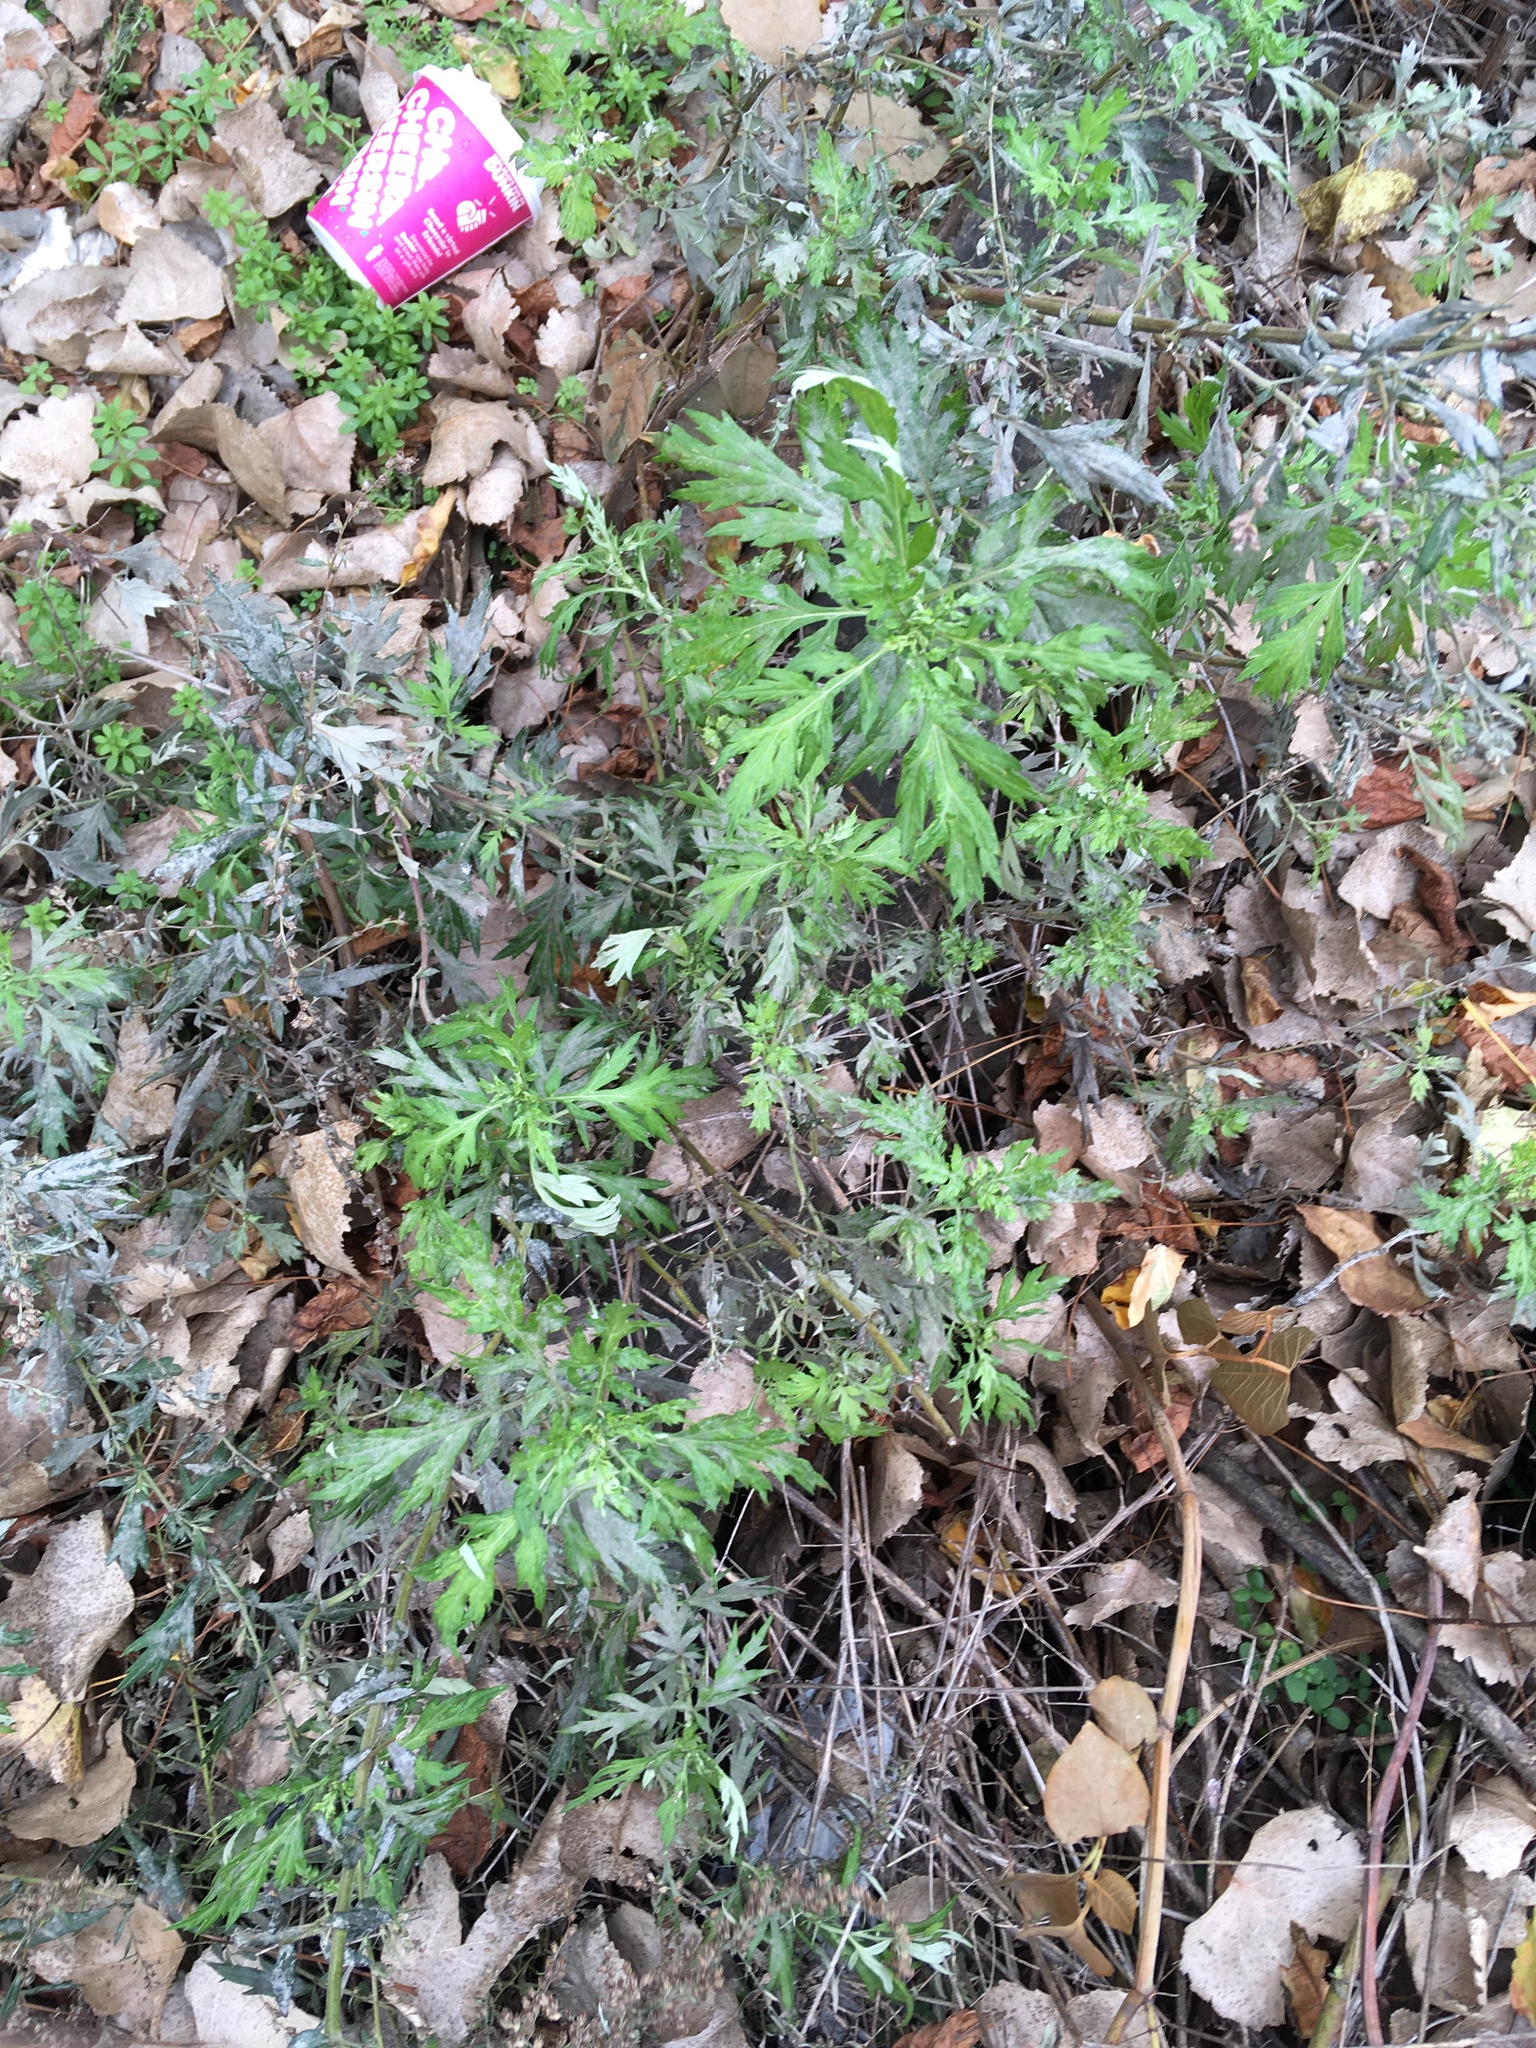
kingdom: Plantae
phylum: Tracheophyta
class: Magnoliopsida
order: Asterales
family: Asteraceae
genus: Artemisia
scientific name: Artemisia vulgaris
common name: Mugwort
